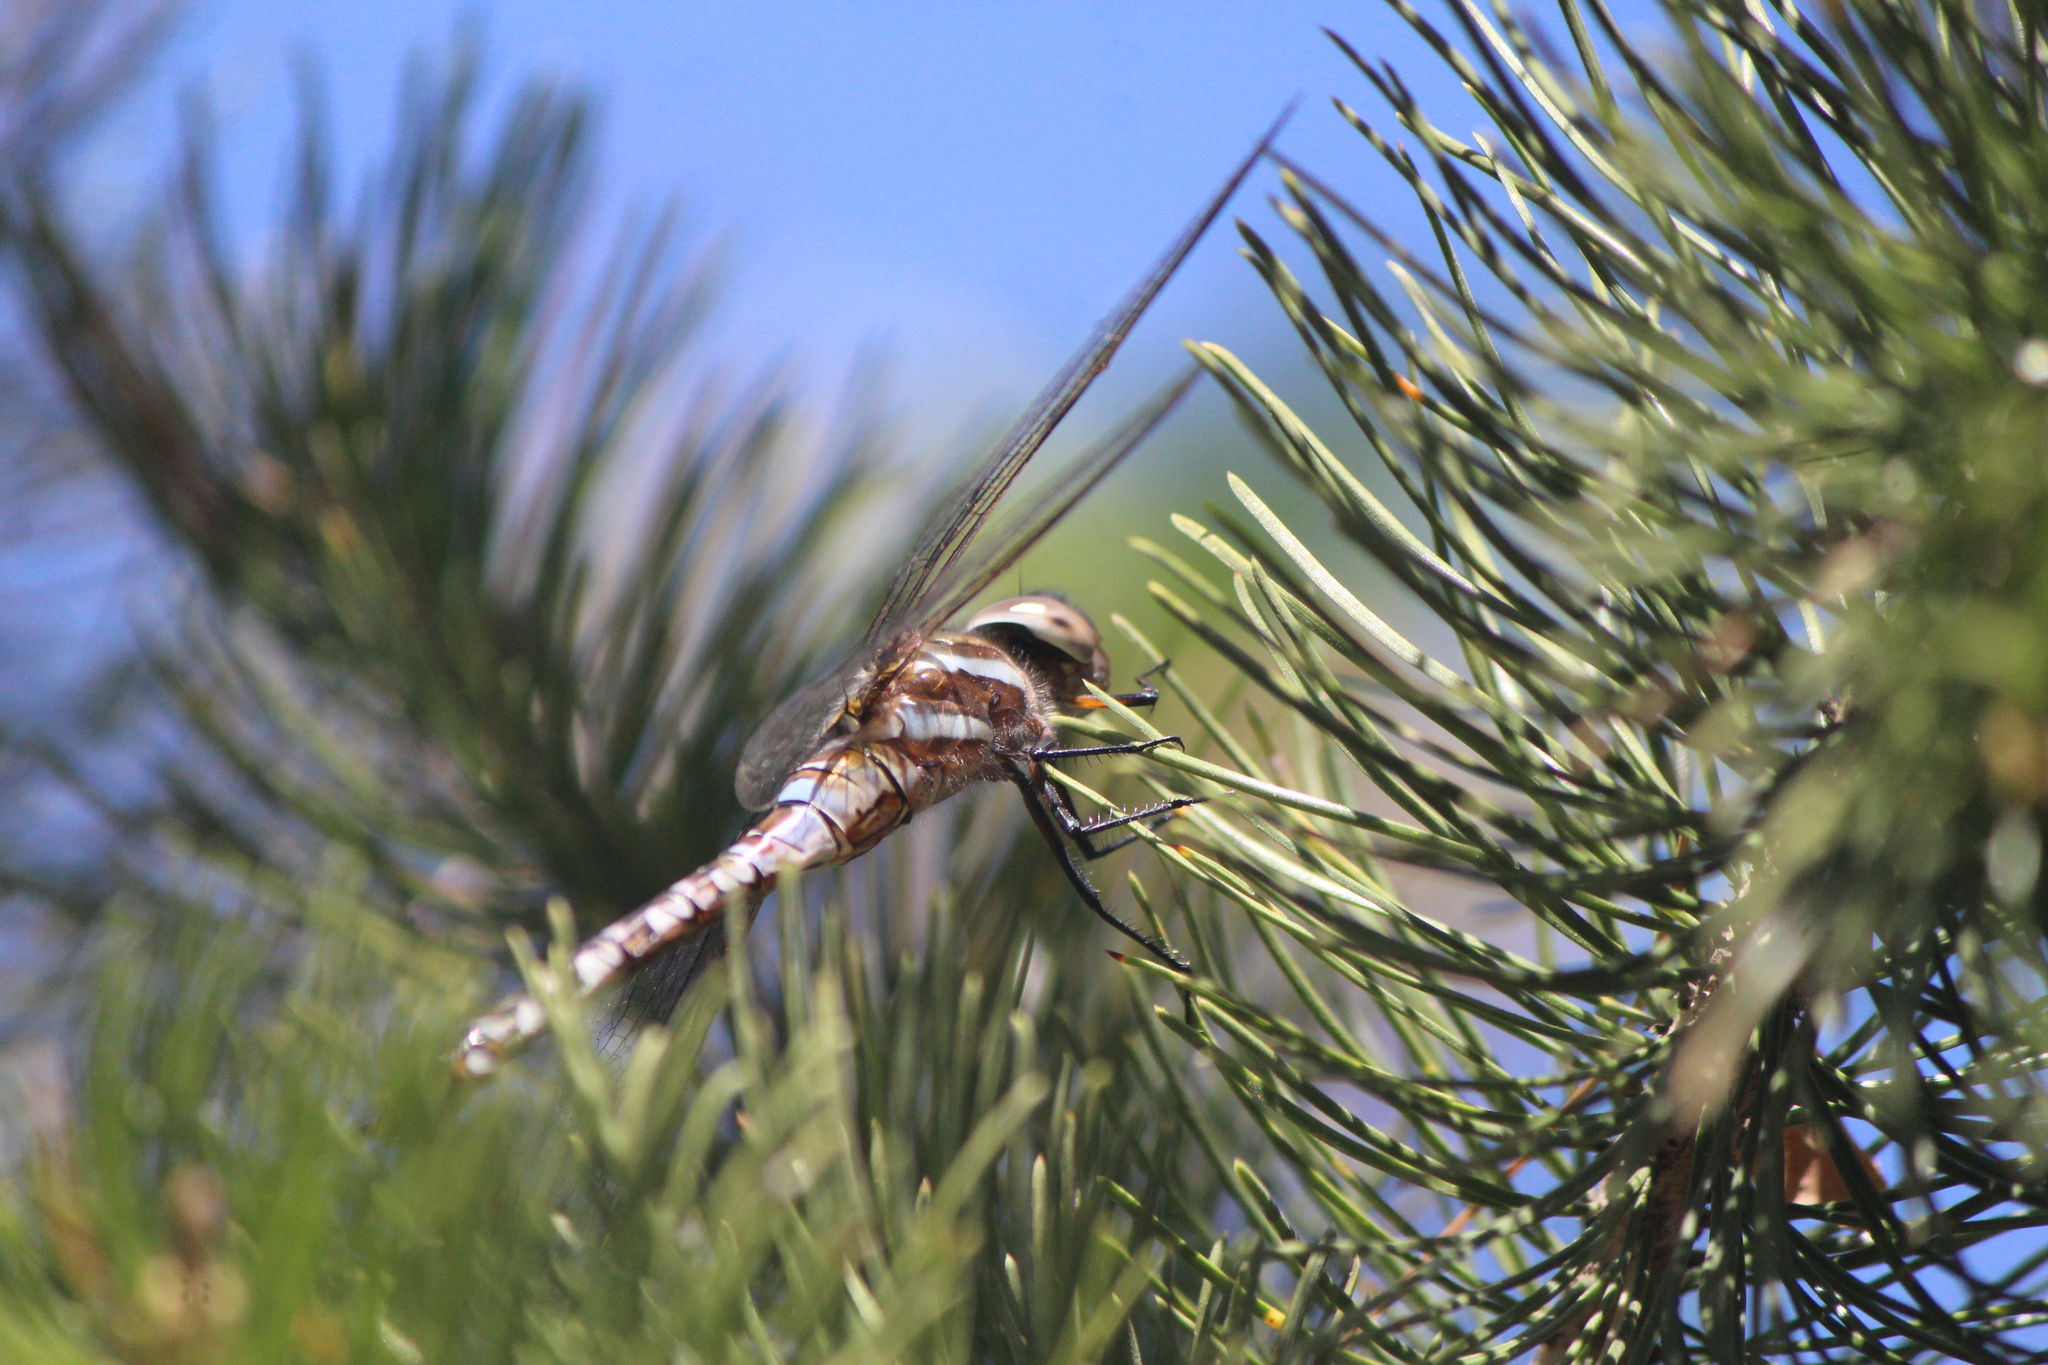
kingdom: Animalia
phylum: Arthropoda
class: Insecta
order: Odonata
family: Aeshnidae
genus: Rhionaeschna
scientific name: Rhionaeschna multicolor
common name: Blue-eyed darner
